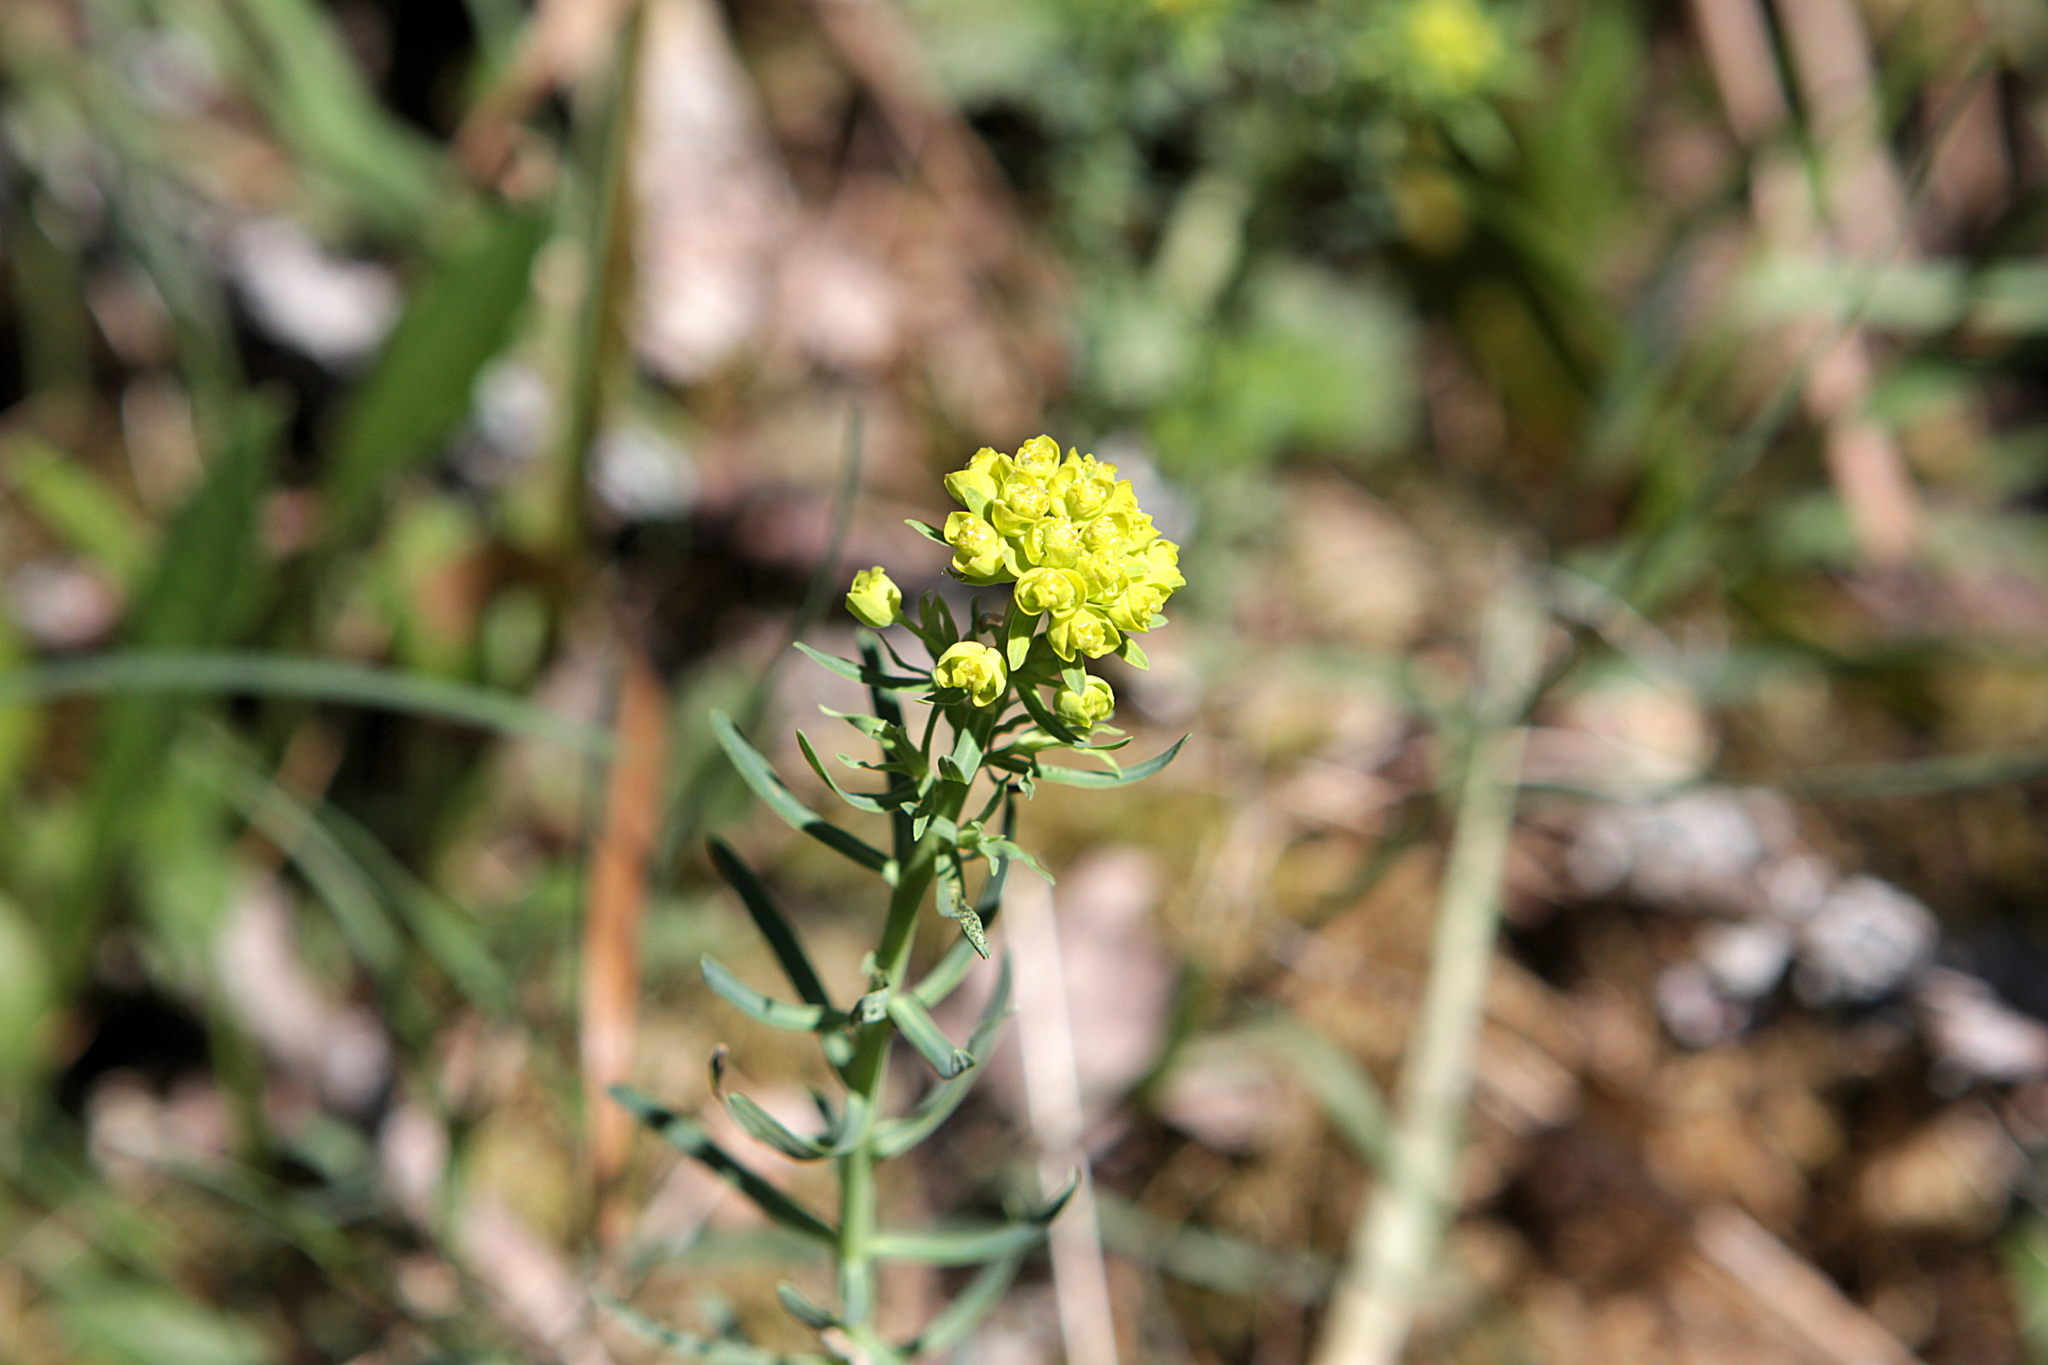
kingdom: Plantae
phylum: Tracheophyta
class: Magnoliopsida
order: Malpighiales
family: Euphorbiaceae
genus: Euphorbia
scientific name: Euphorbia cyparissias
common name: Cypress spurge
